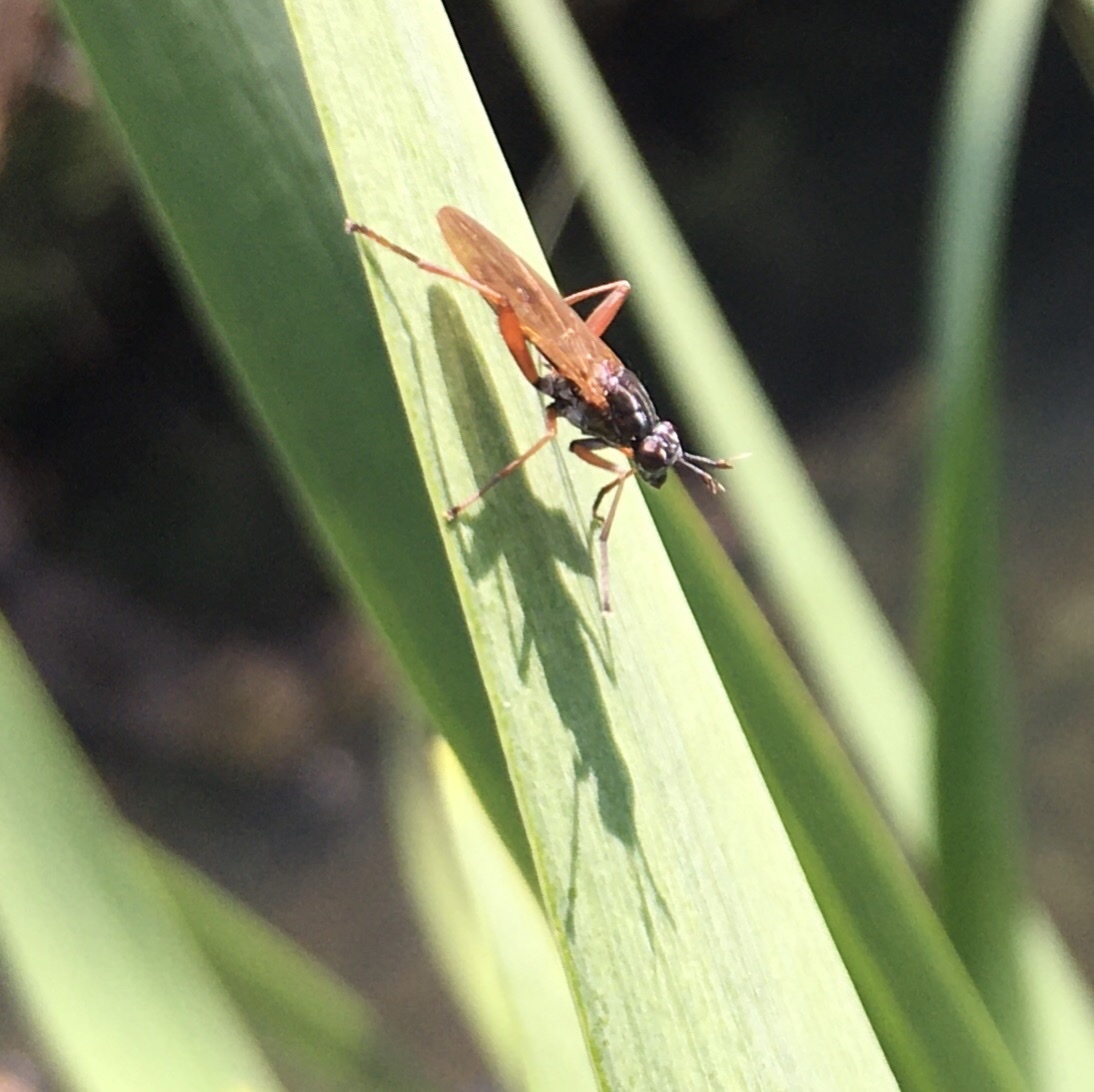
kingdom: Animalia
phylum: Arthropoda
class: Insecta
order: Diptera
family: Sciomyzidae
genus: Sepedon
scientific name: Sepedon sphegea
